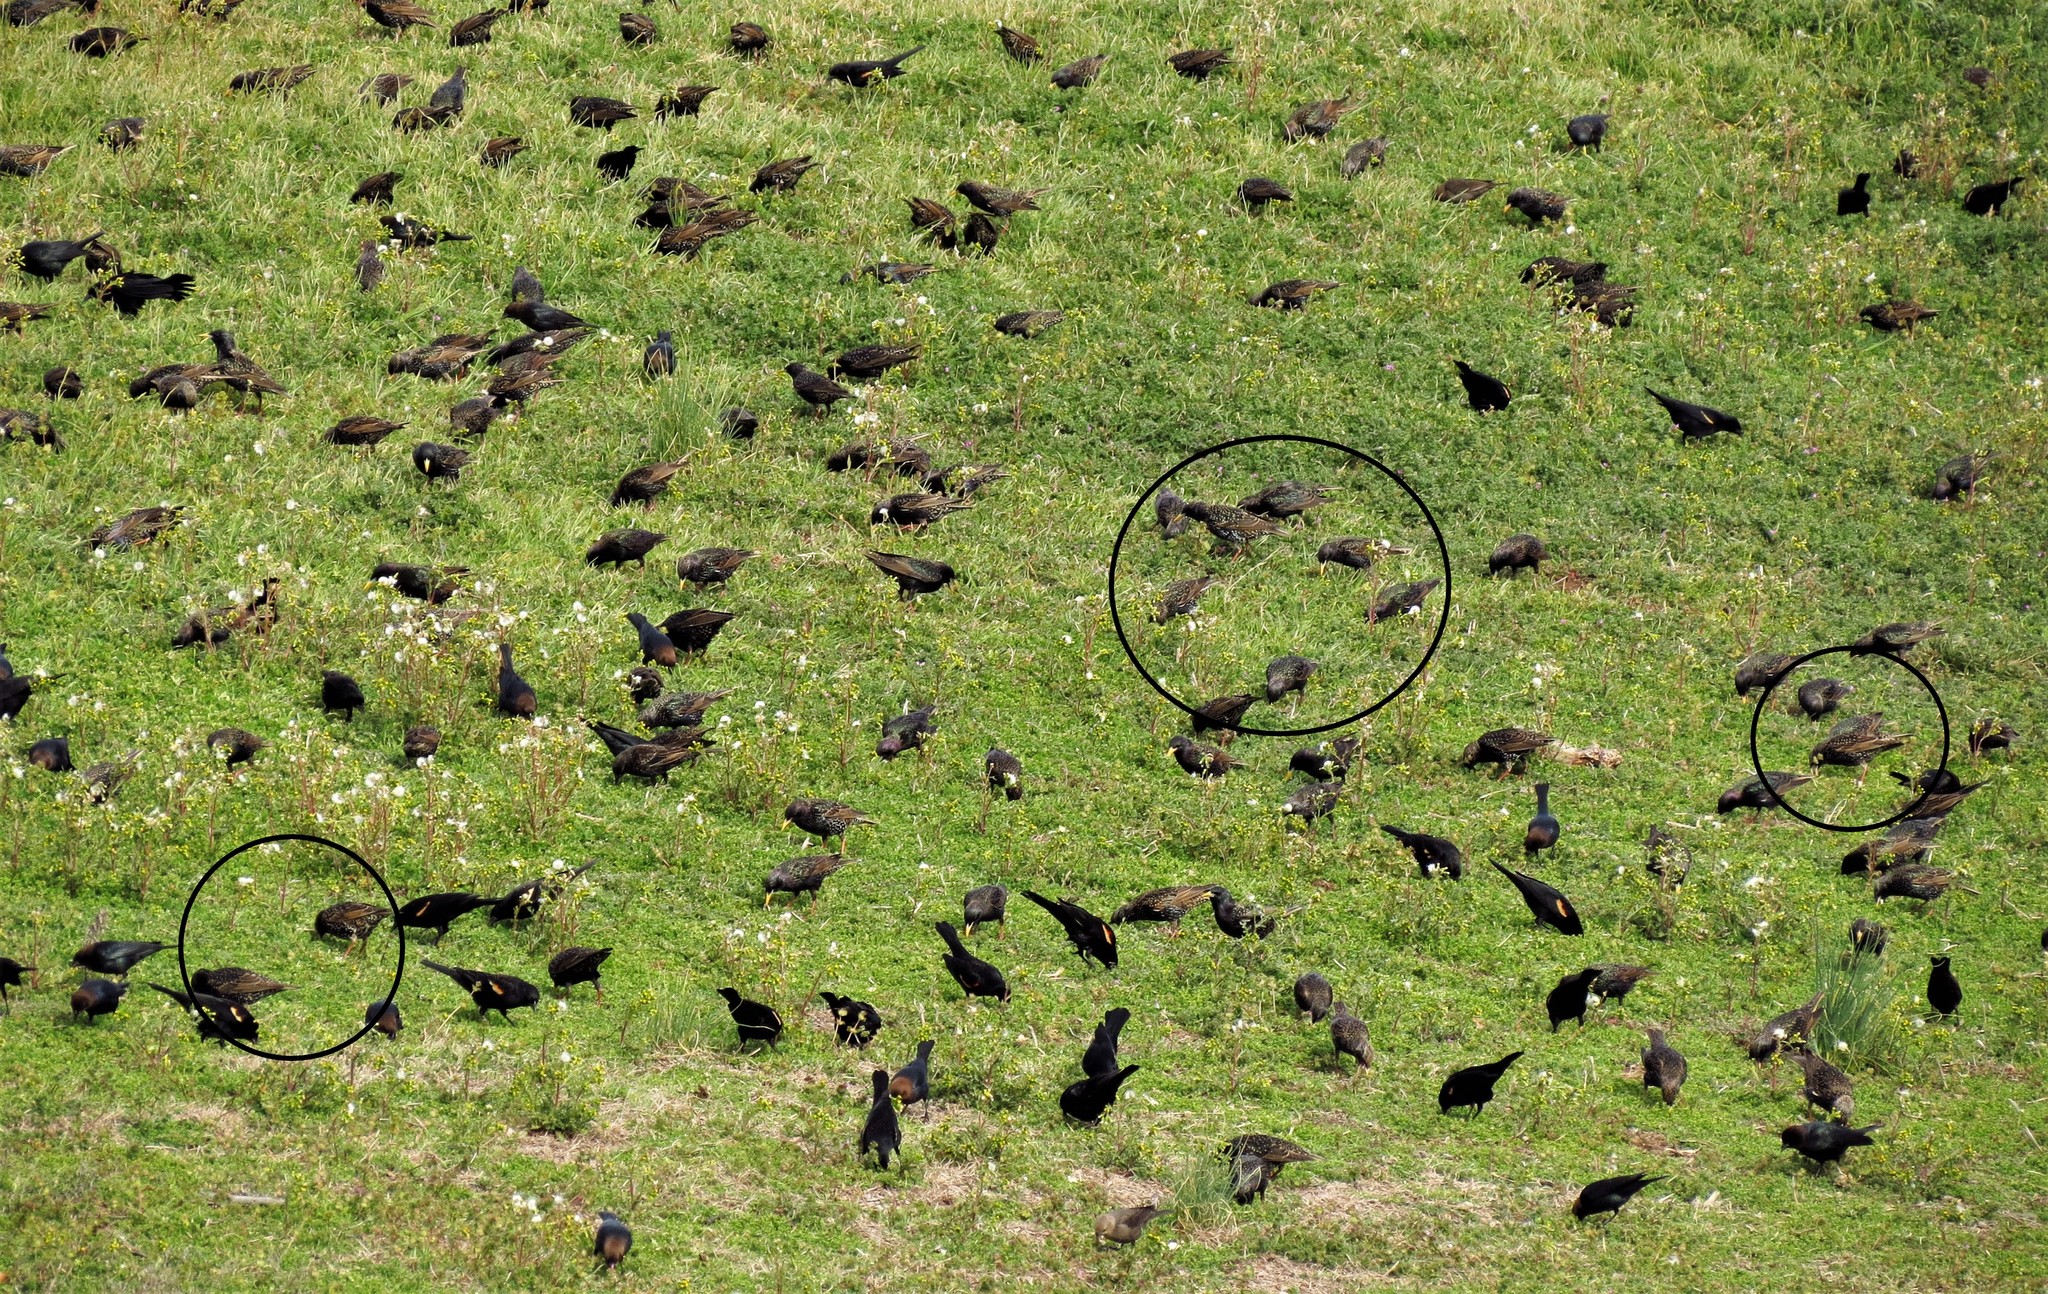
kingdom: Animalia
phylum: Chordata
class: Aves
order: Passeriformes
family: Sturnidae
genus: Sturnus
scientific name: Sturnus vulgaris
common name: Common starling
